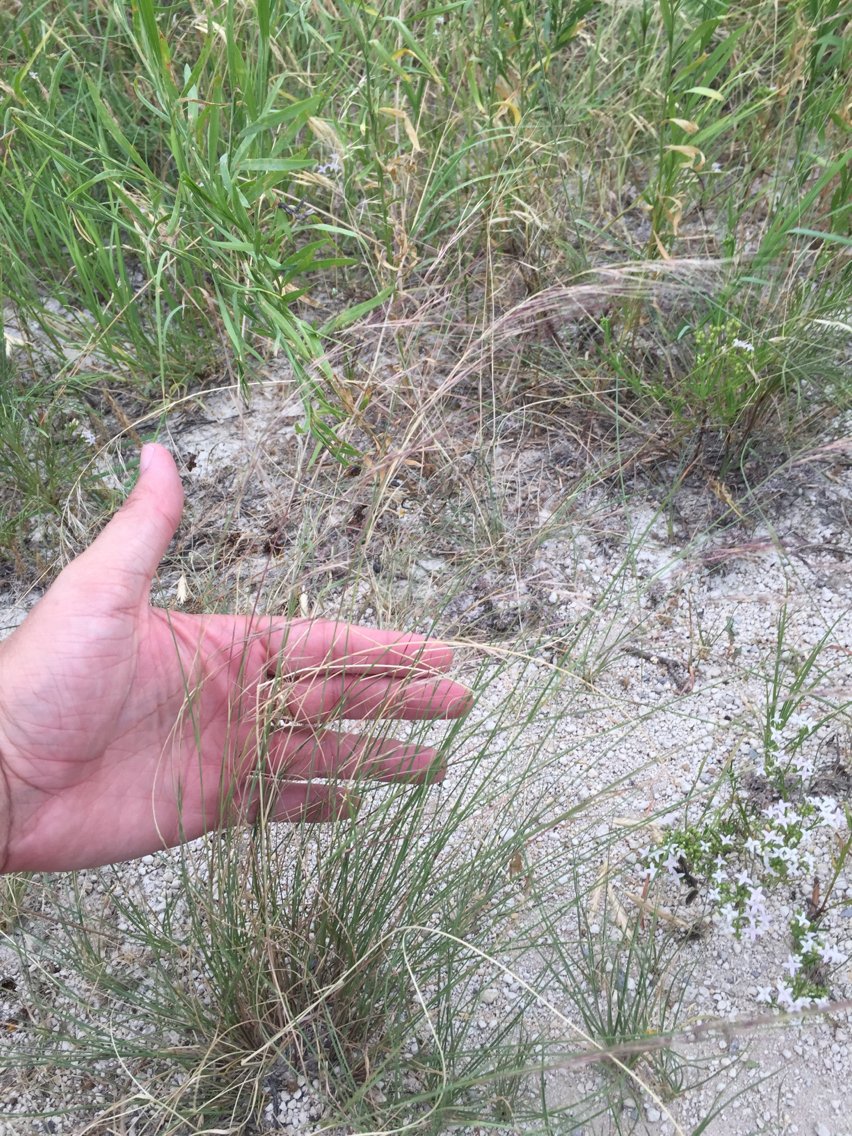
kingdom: Plantae
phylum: Tracheophyta
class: Liliopsida
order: Poales
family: Poaceae
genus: Aristida
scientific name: Aristida purpurea
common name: Purple threeawn
